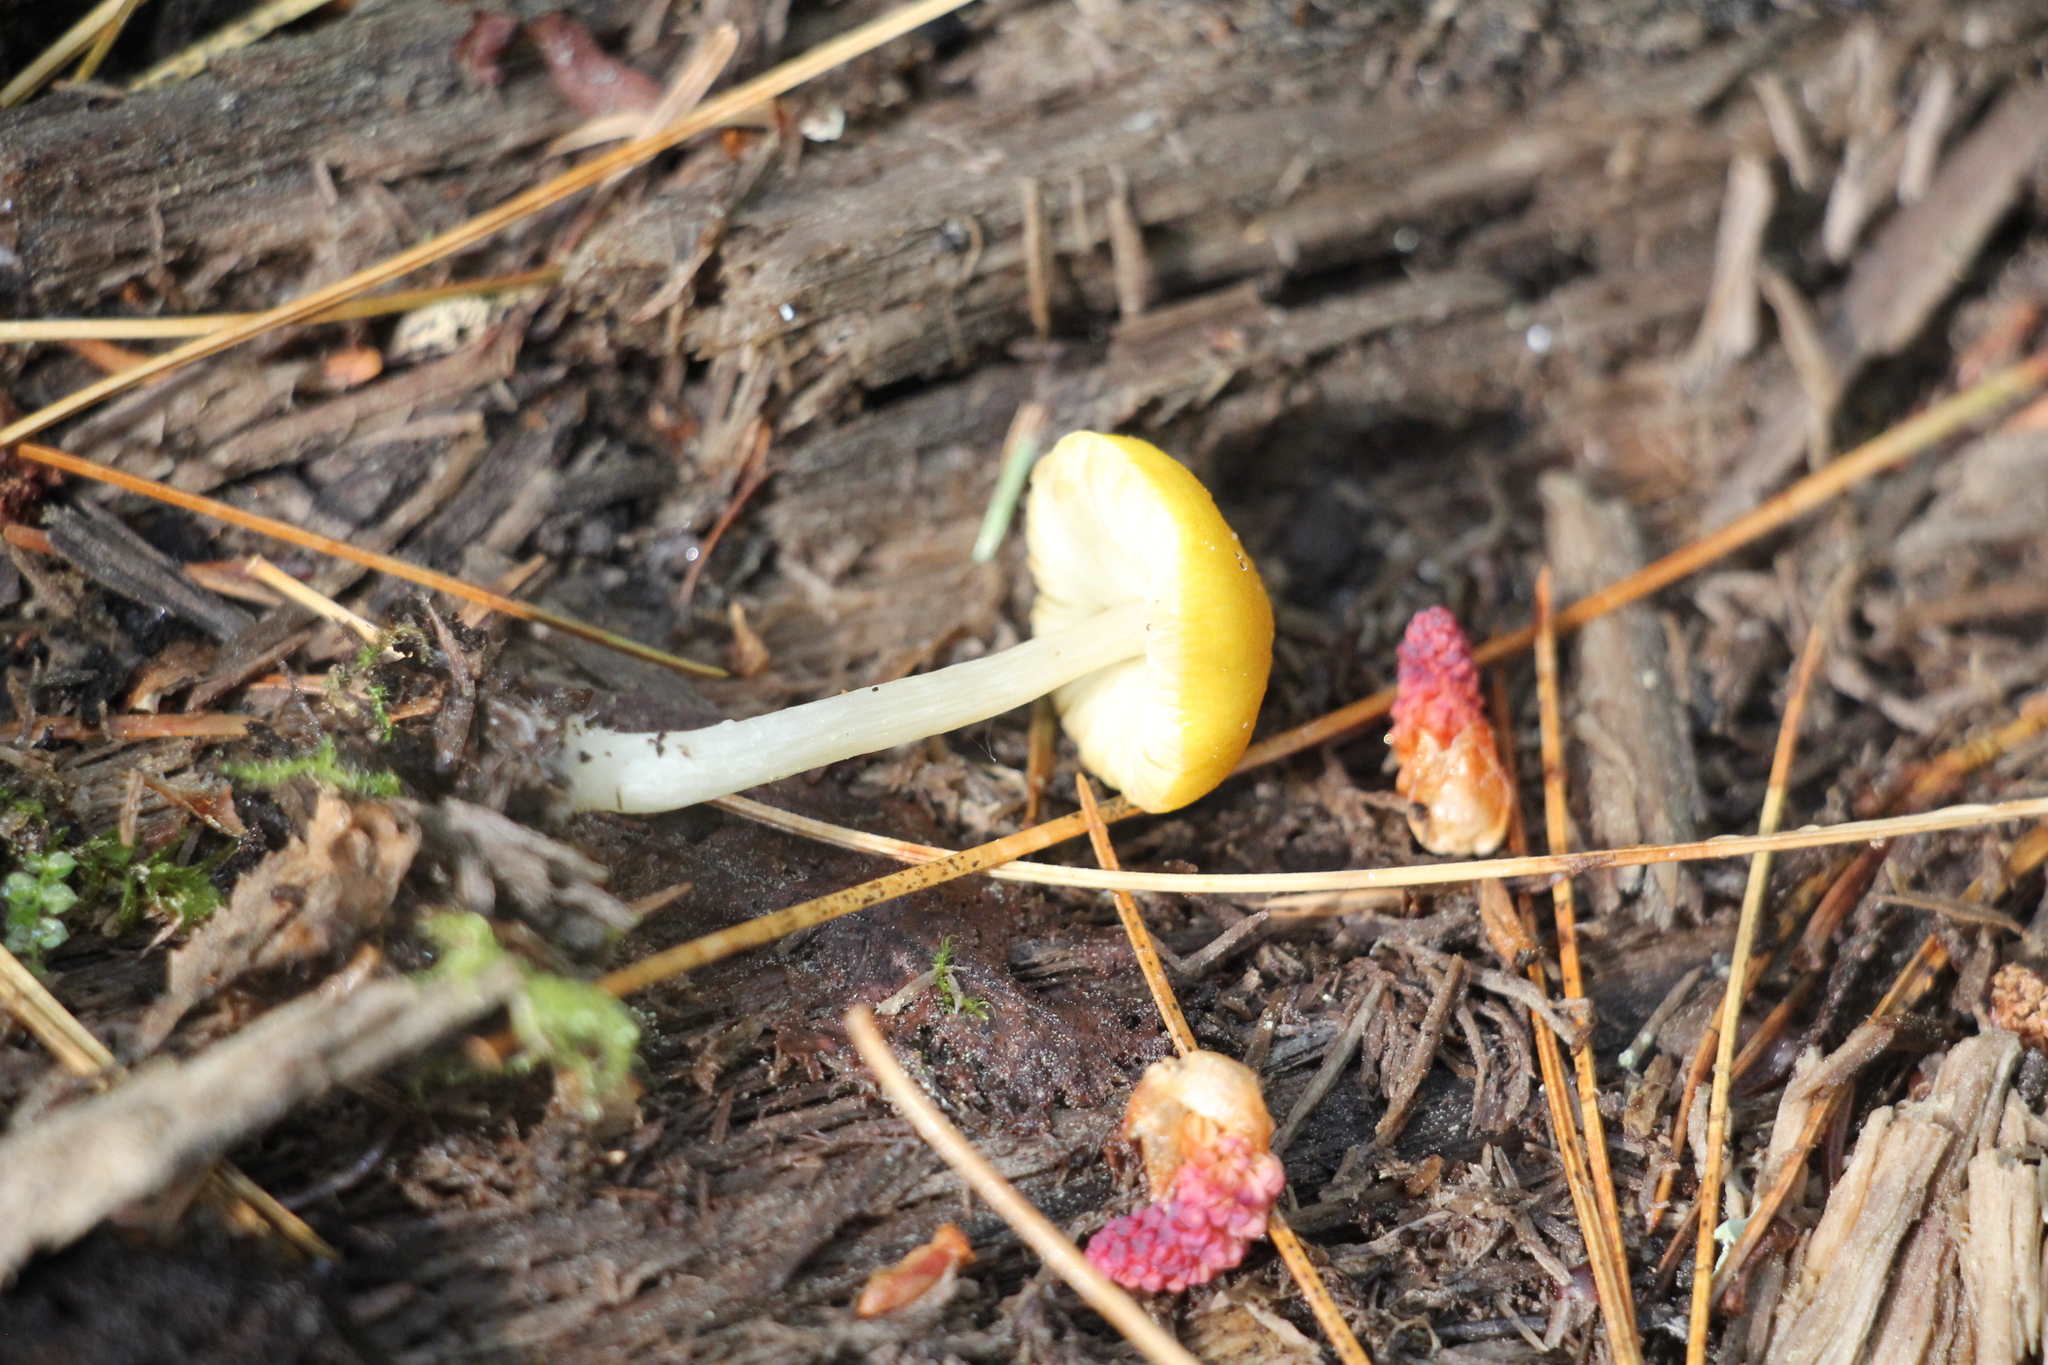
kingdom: Fungi
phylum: Basidiomycota
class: Agaricomycetes
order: Agaricales
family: Pluteaceae
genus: Pluteus
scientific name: Pluteus chrysophlebius
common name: Yellow deer mushroom
